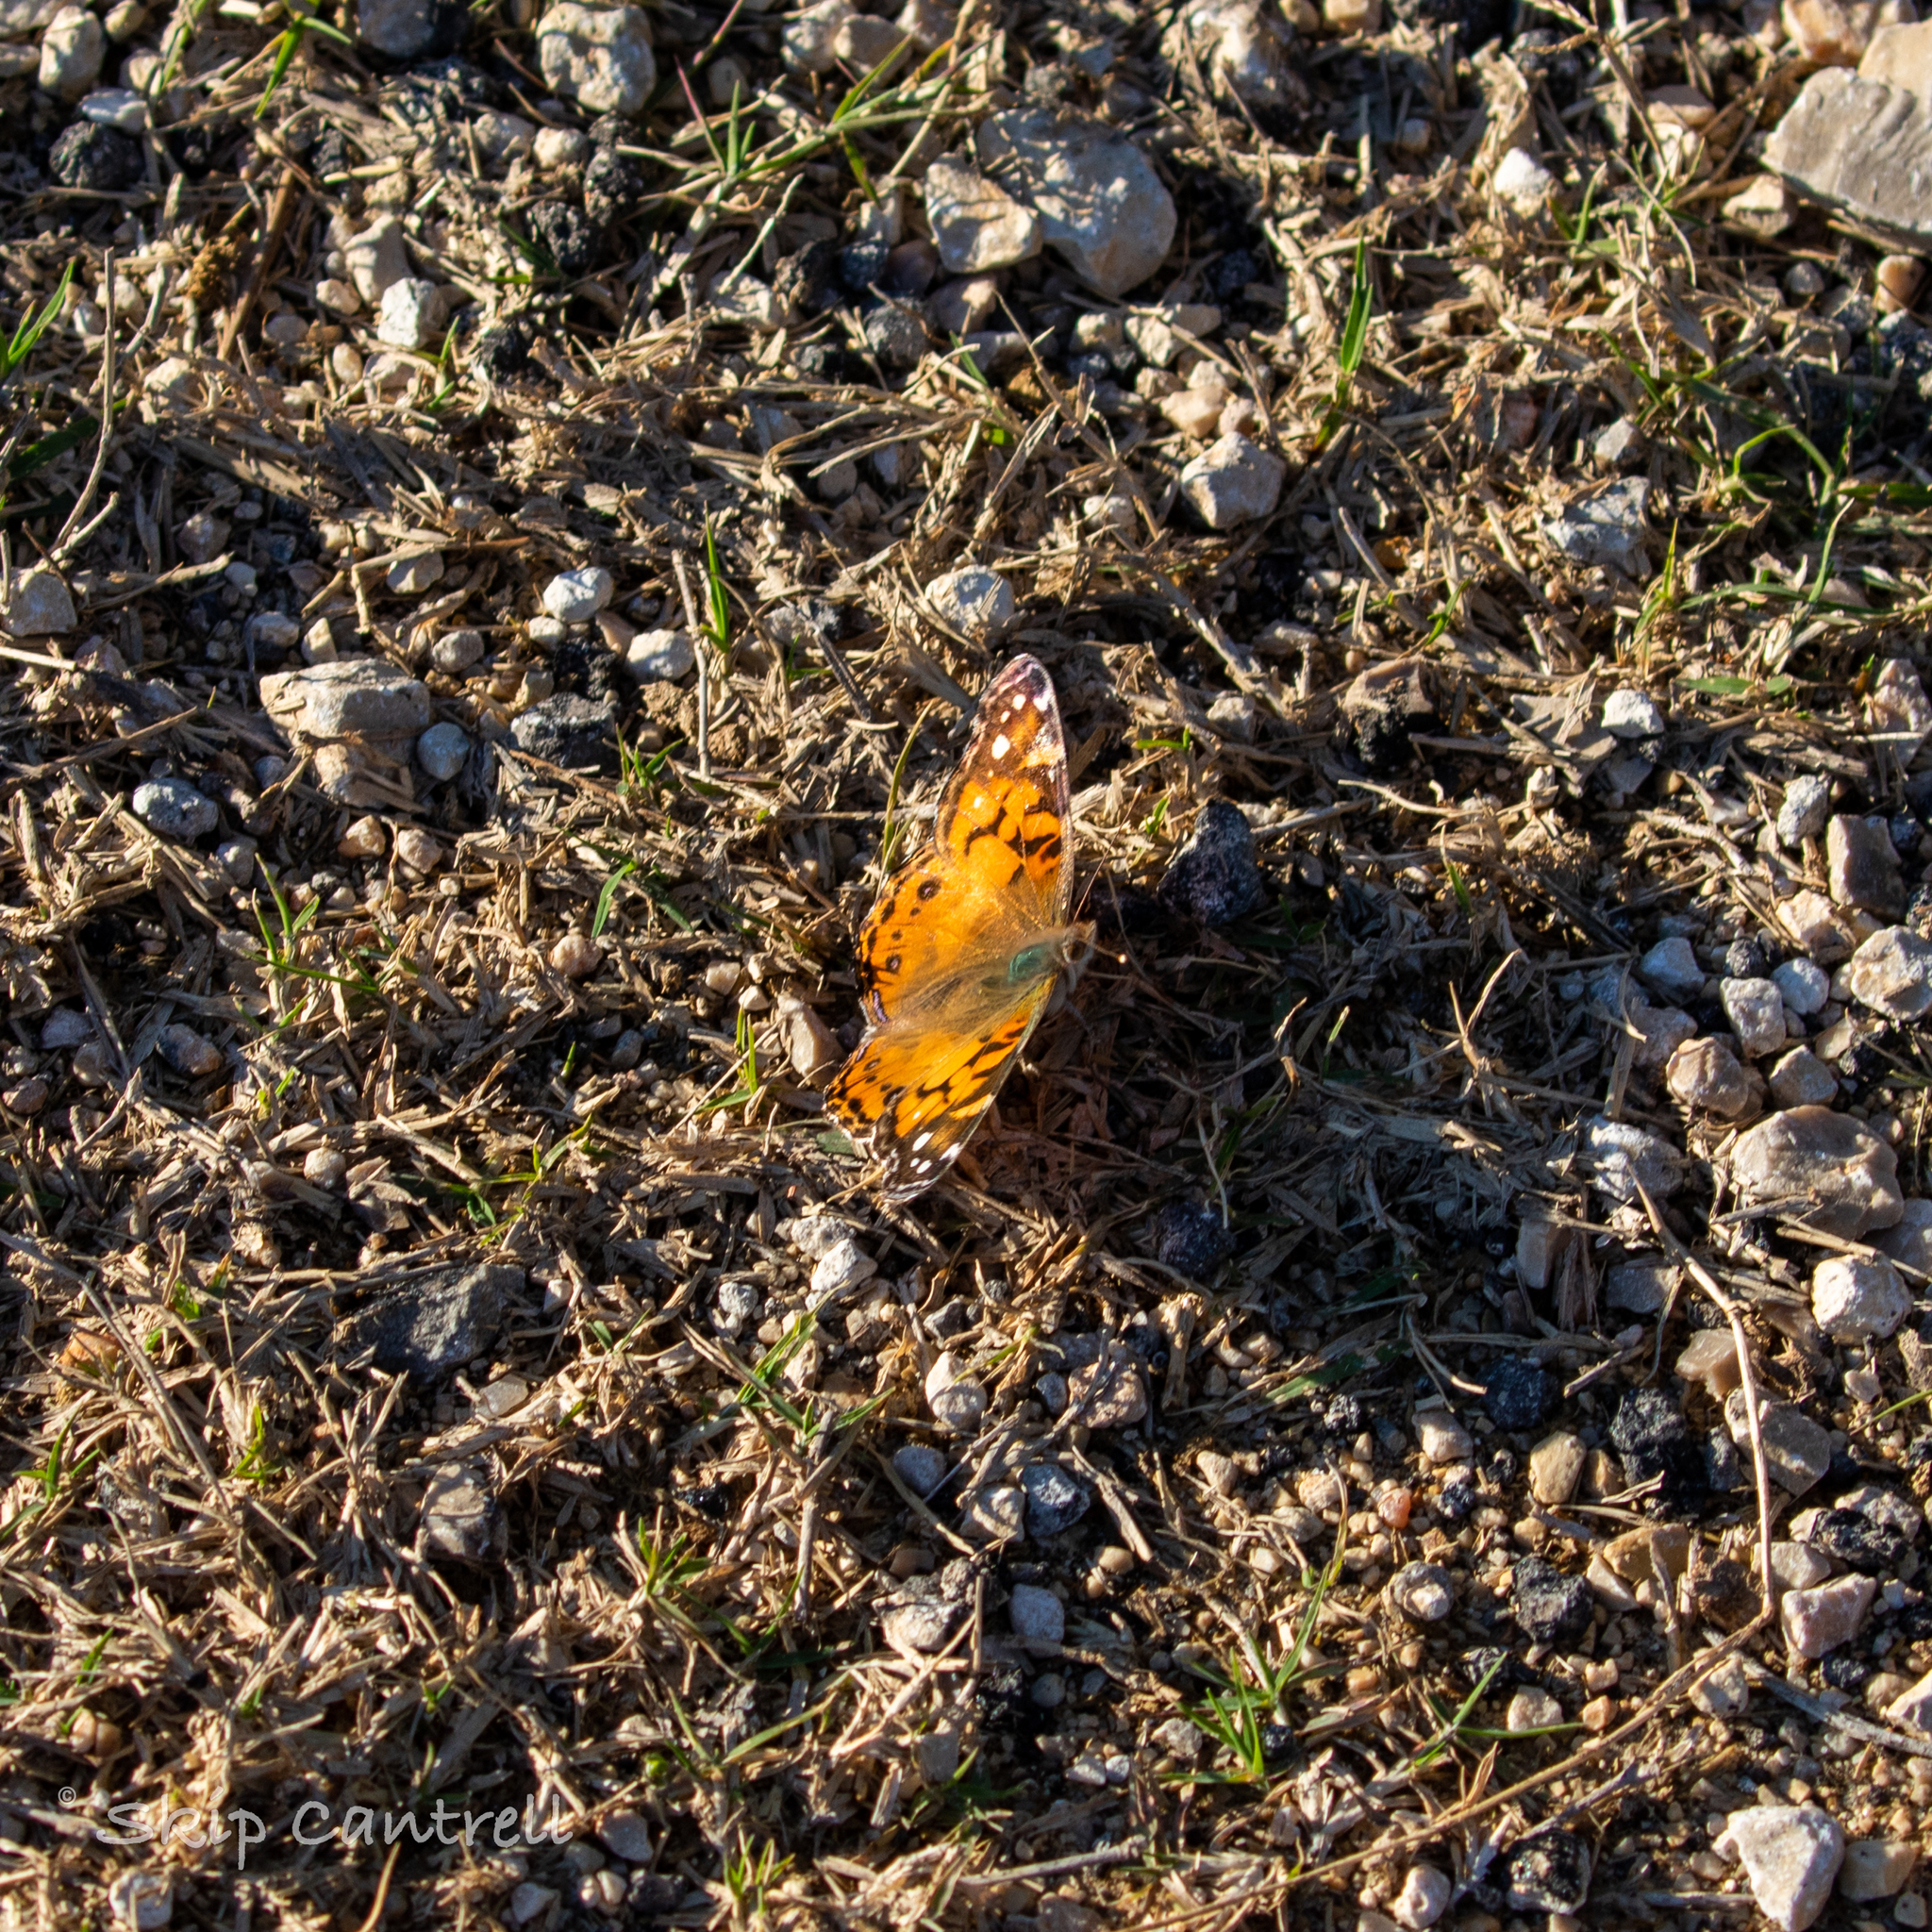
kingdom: Animalia
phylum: Arthropoda
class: Insecta
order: Lepidoptera
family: Nymphalidae
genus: Vanessa
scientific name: Vanessa virginiensis
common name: American lady
